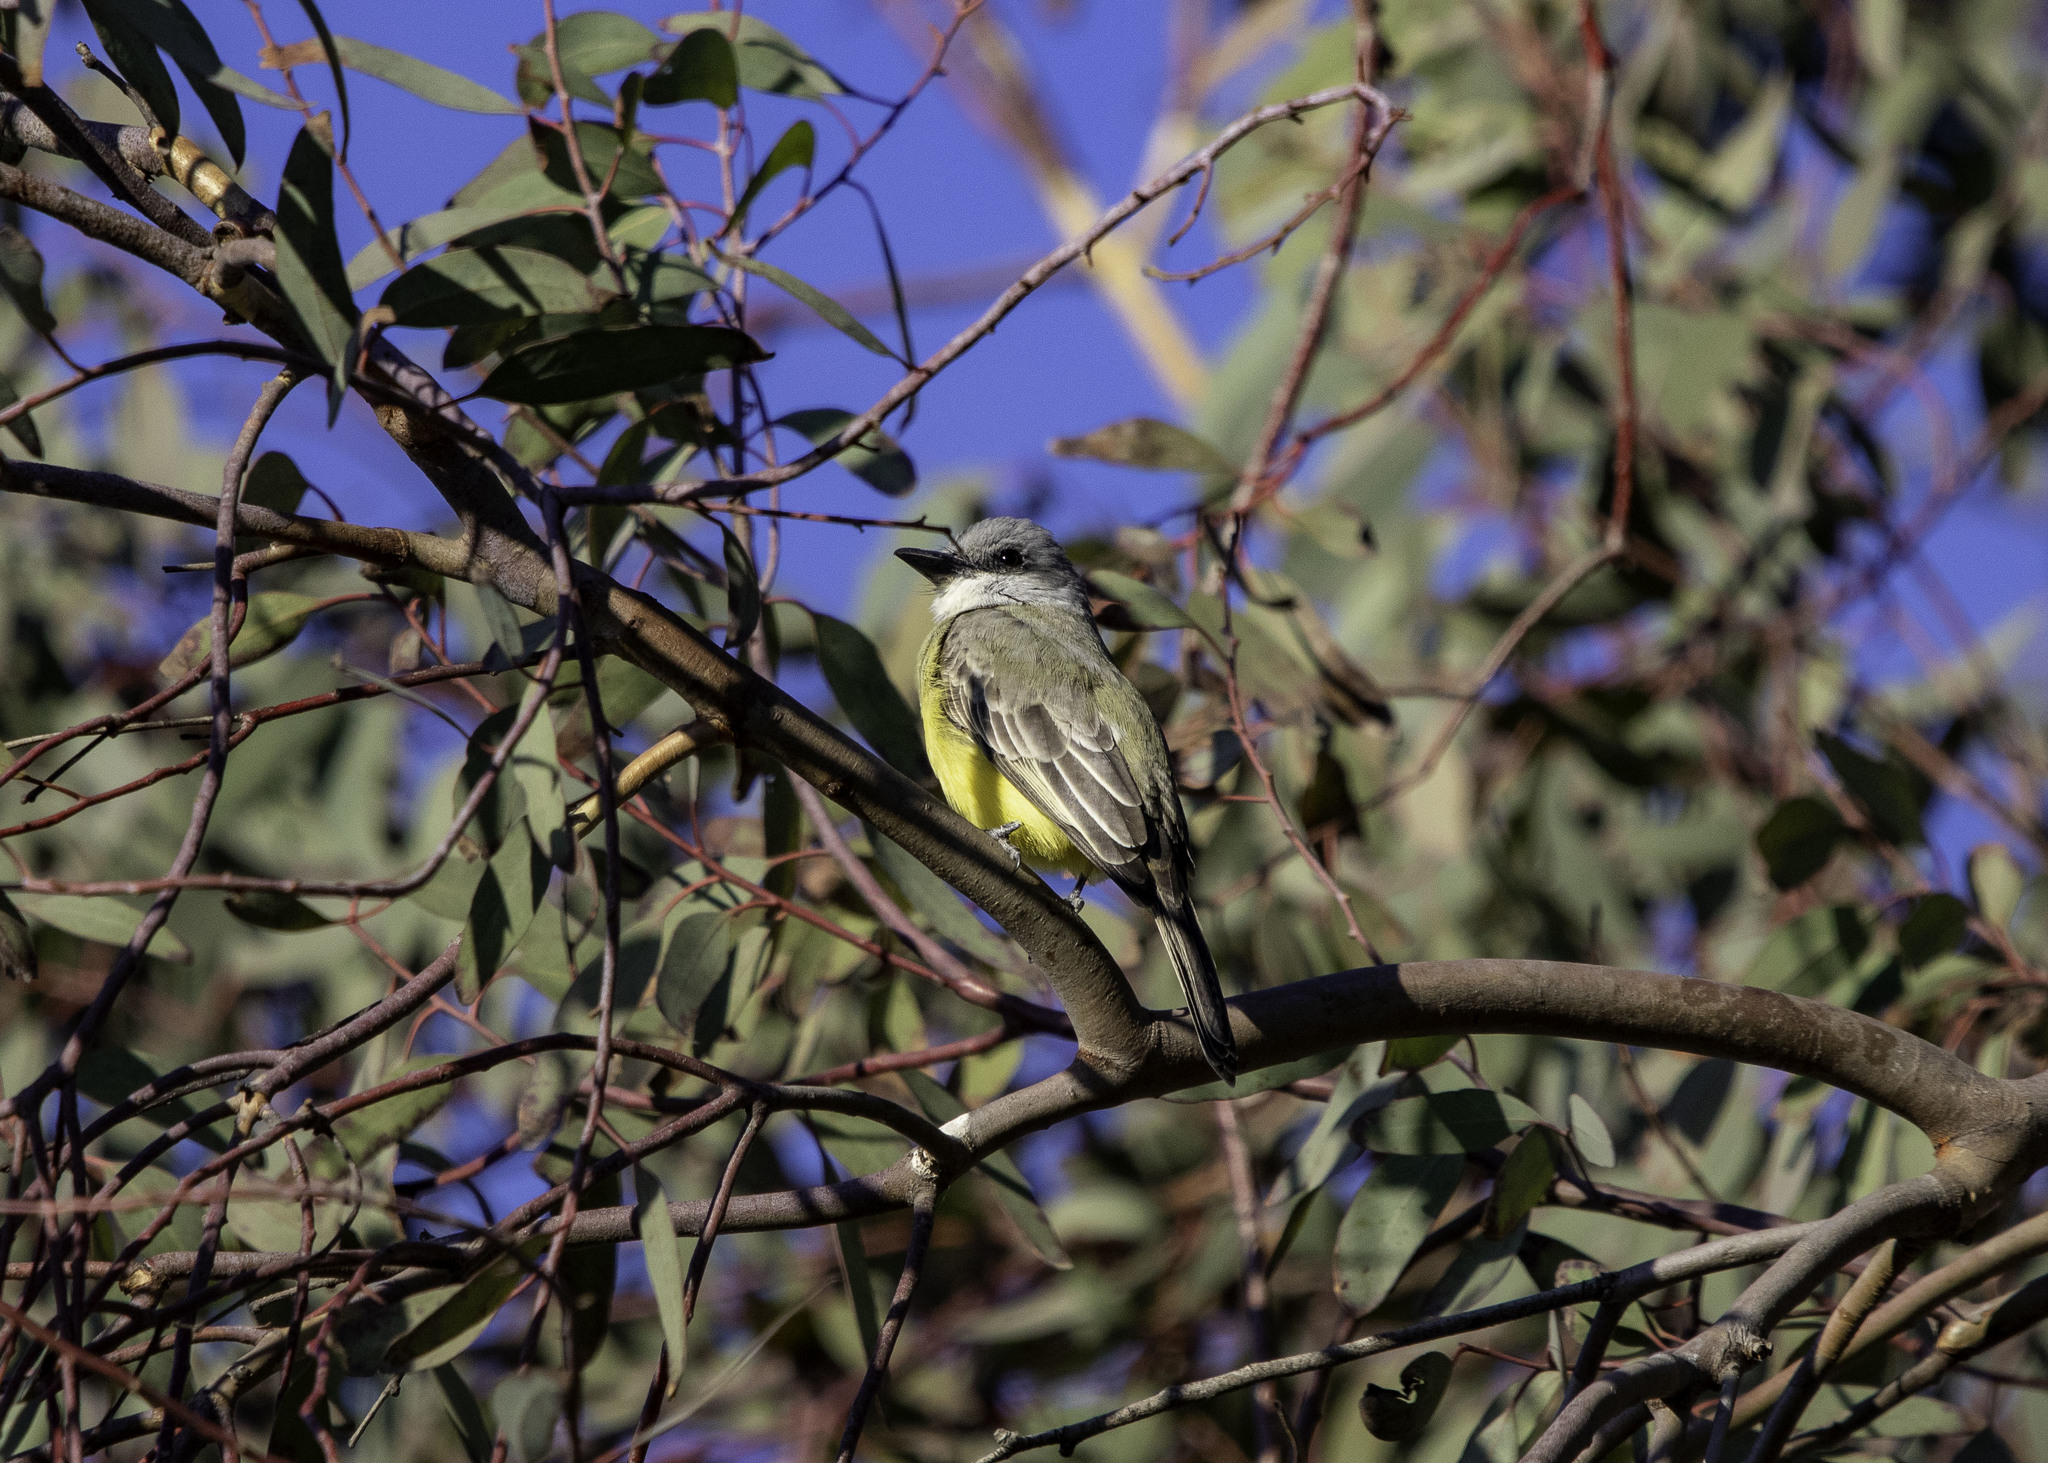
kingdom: Animalia
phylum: Chordata
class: Aves
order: Passeriformes
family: Tyrannidae
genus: Tyrannus
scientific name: Tyrannus melancholicus
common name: Tropical kingbird
